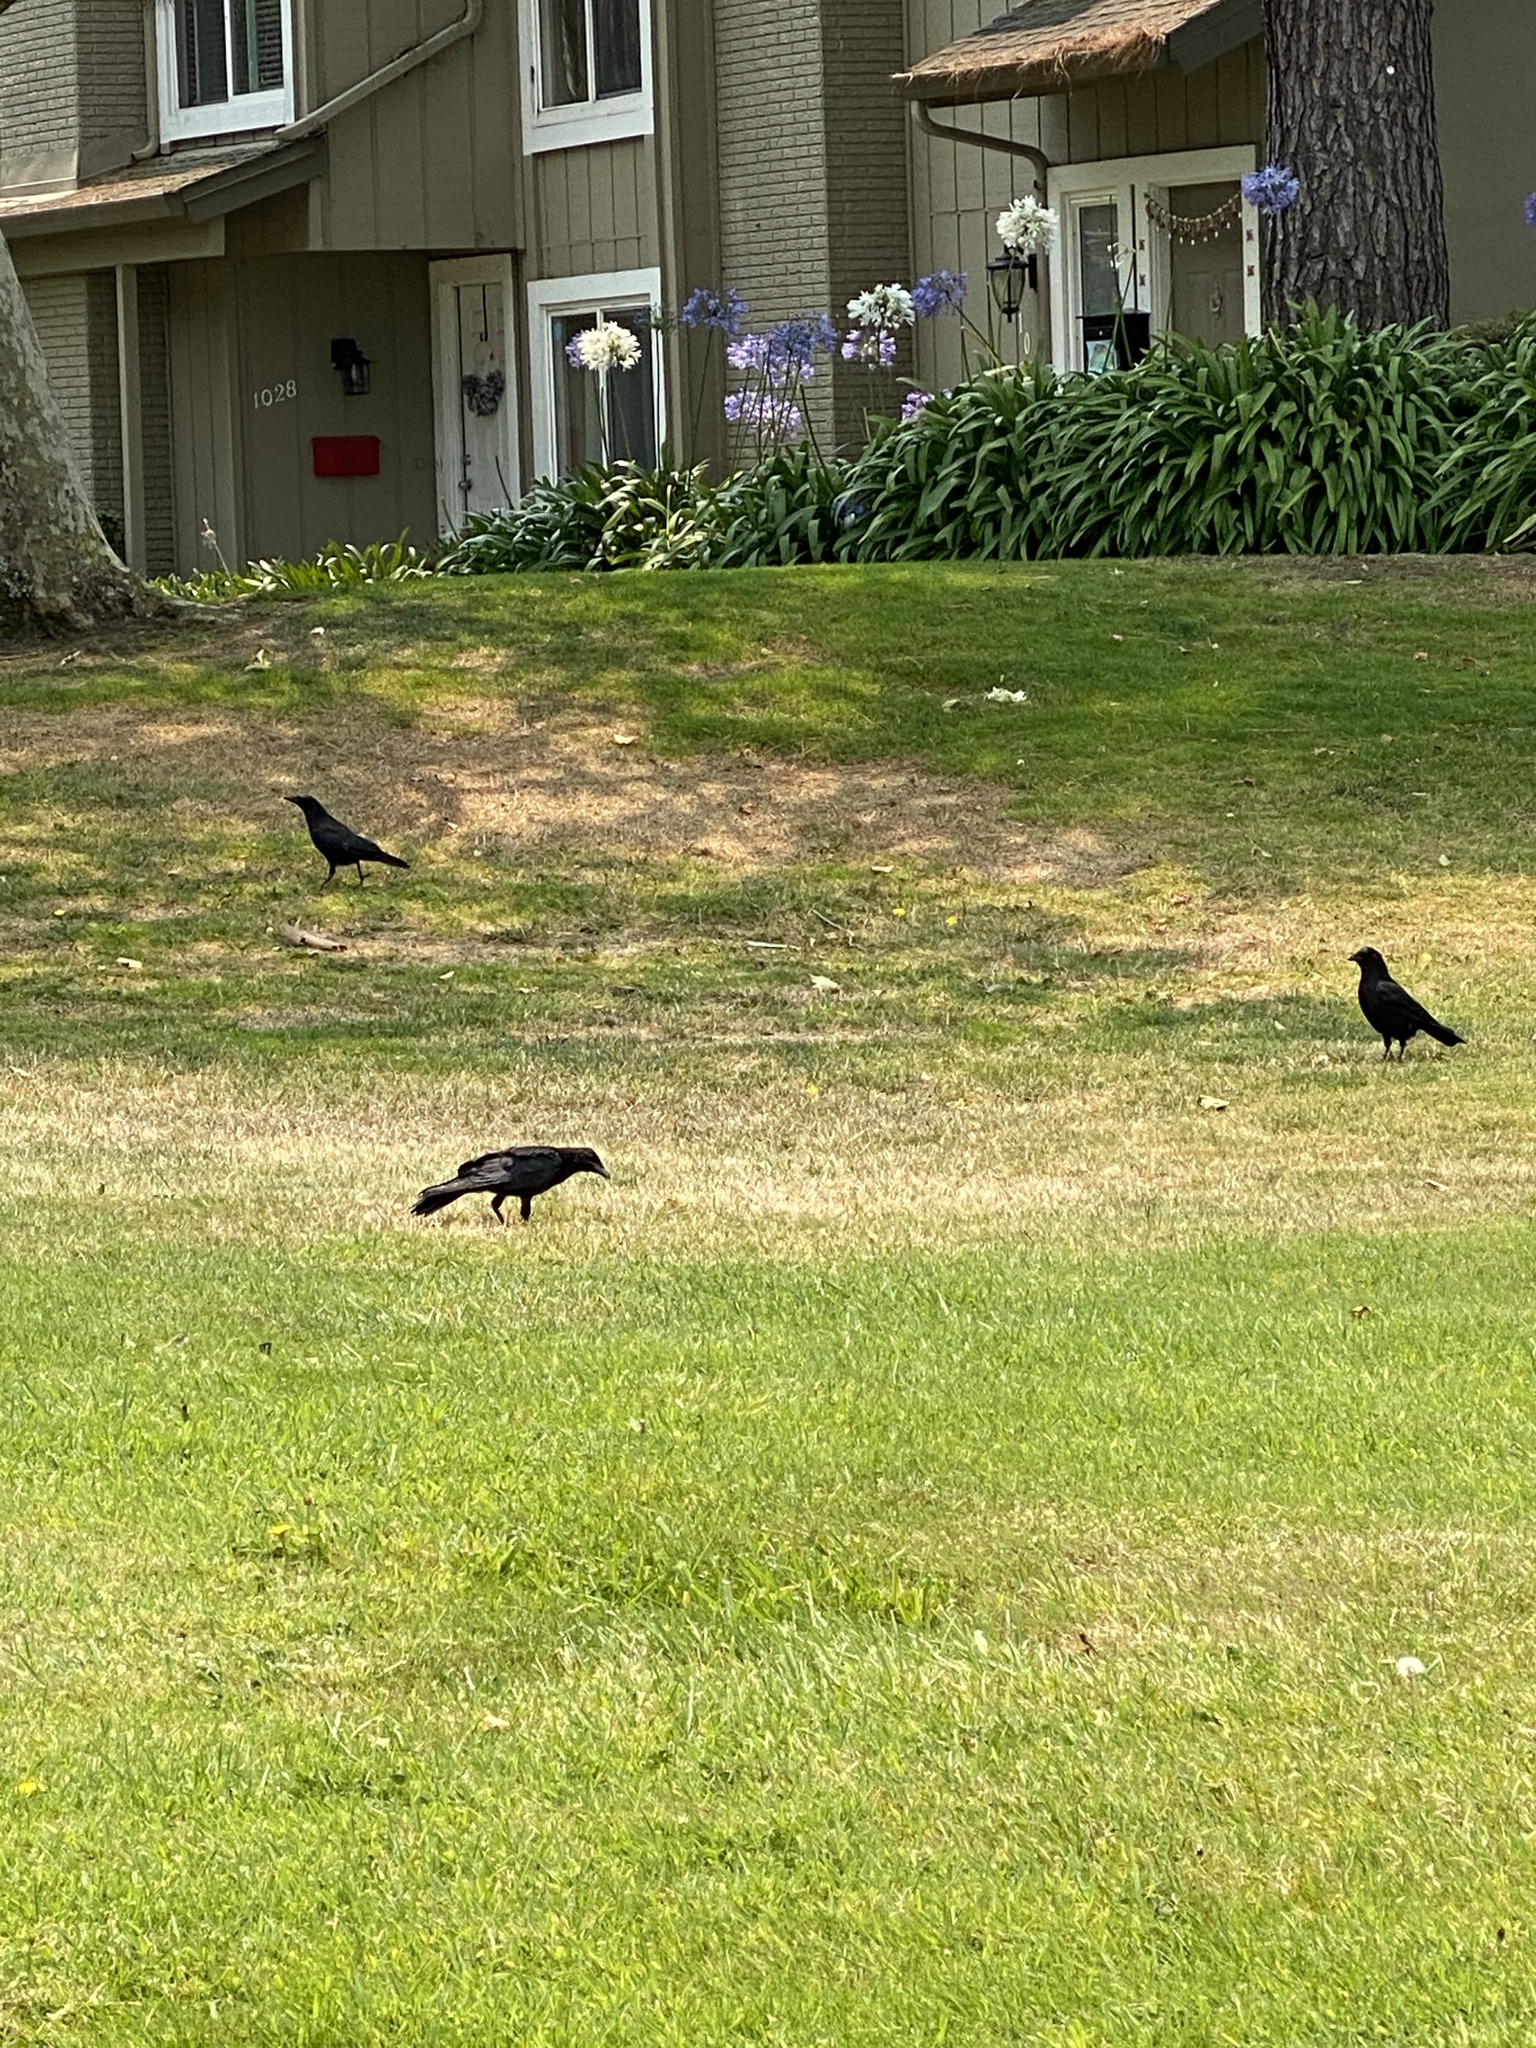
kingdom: Animalia
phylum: Chordata
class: Aves
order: Passeriformes
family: Corvidae
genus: Corvus
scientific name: Corvus brachyrhynchos
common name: American crow
